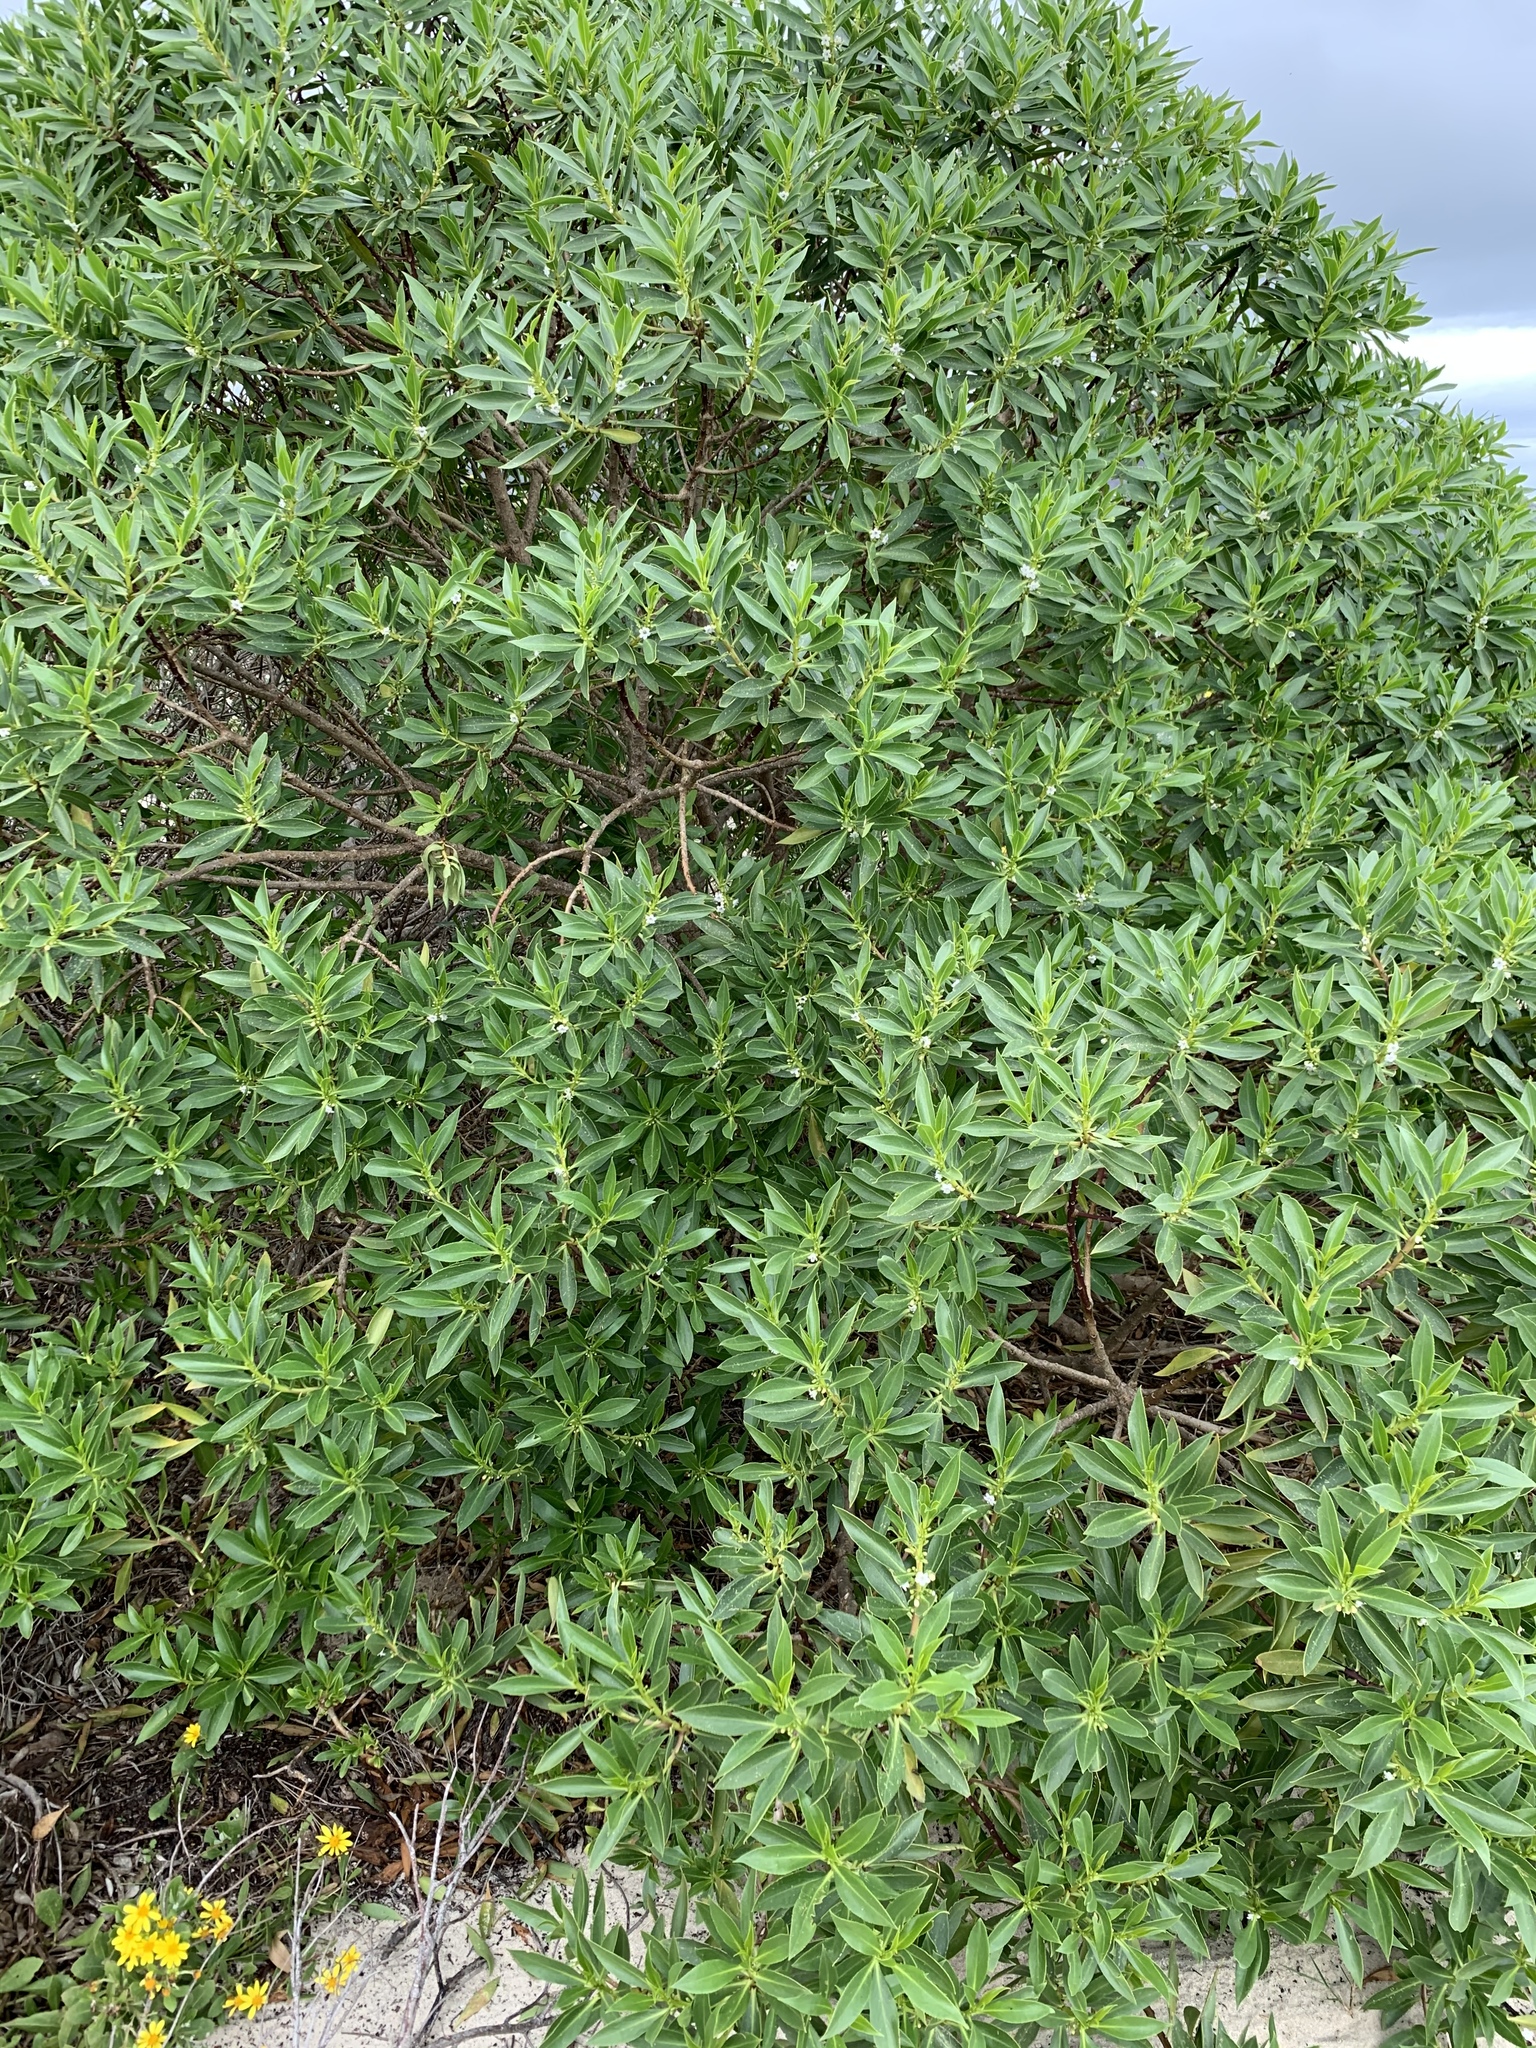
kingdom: Plantae
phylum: Tracheophyta
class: Magnoliopsida
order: Lamiales
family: Scrophulariaceae
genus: Myoporum
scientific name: Myoporum insulare
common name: Common boobialla
